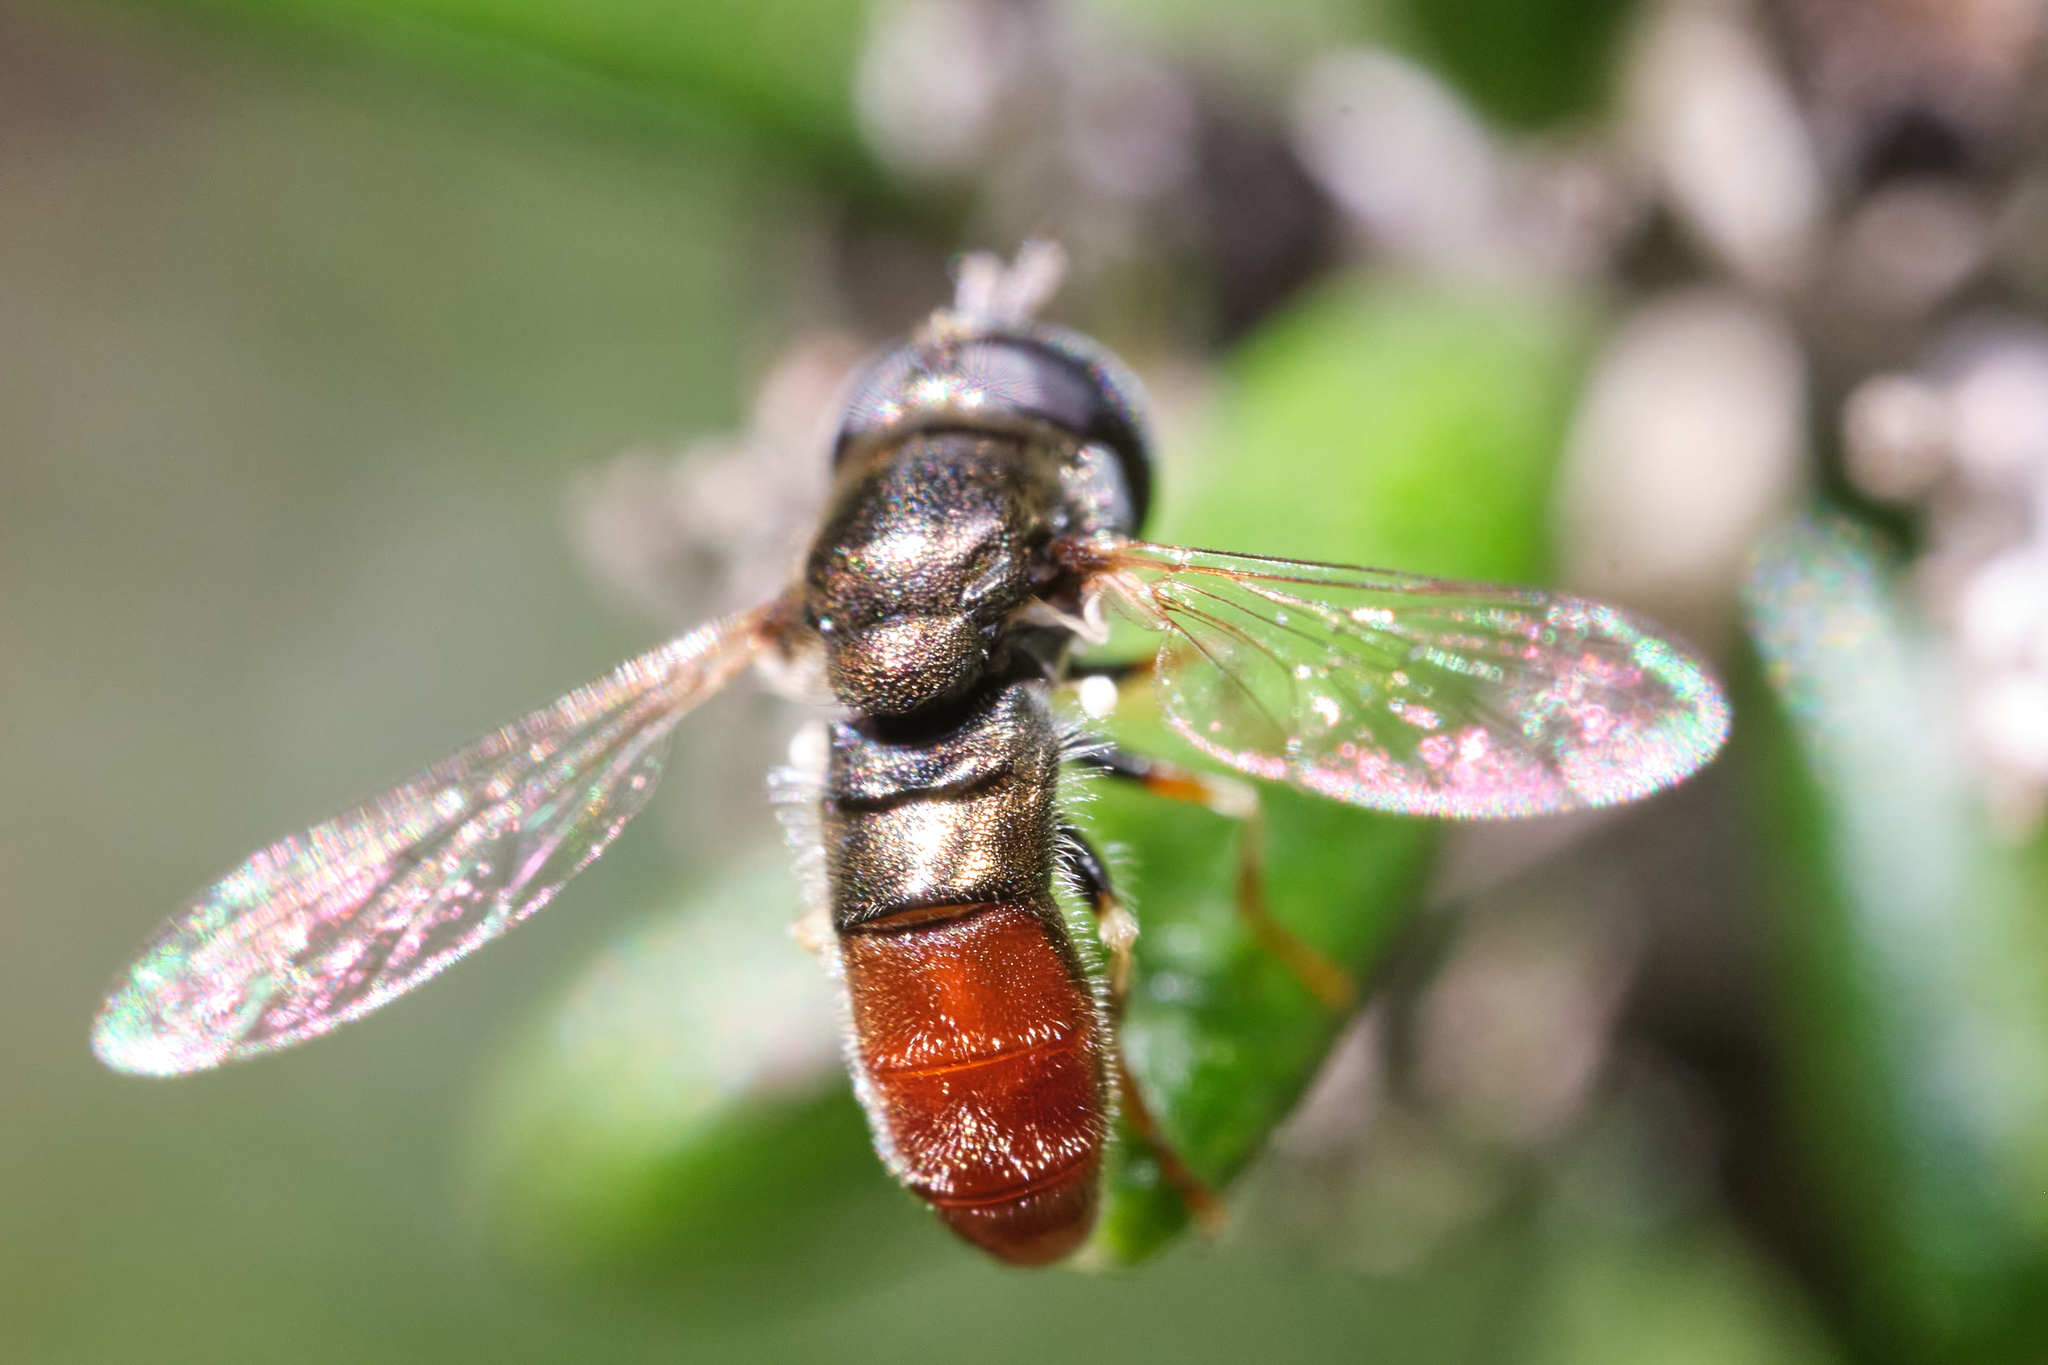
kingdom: Animalia
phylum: Arthropoda
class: Insecta
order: Diptera
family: Syrphidae
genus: Paragus
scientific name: Paragus haemorrhous
